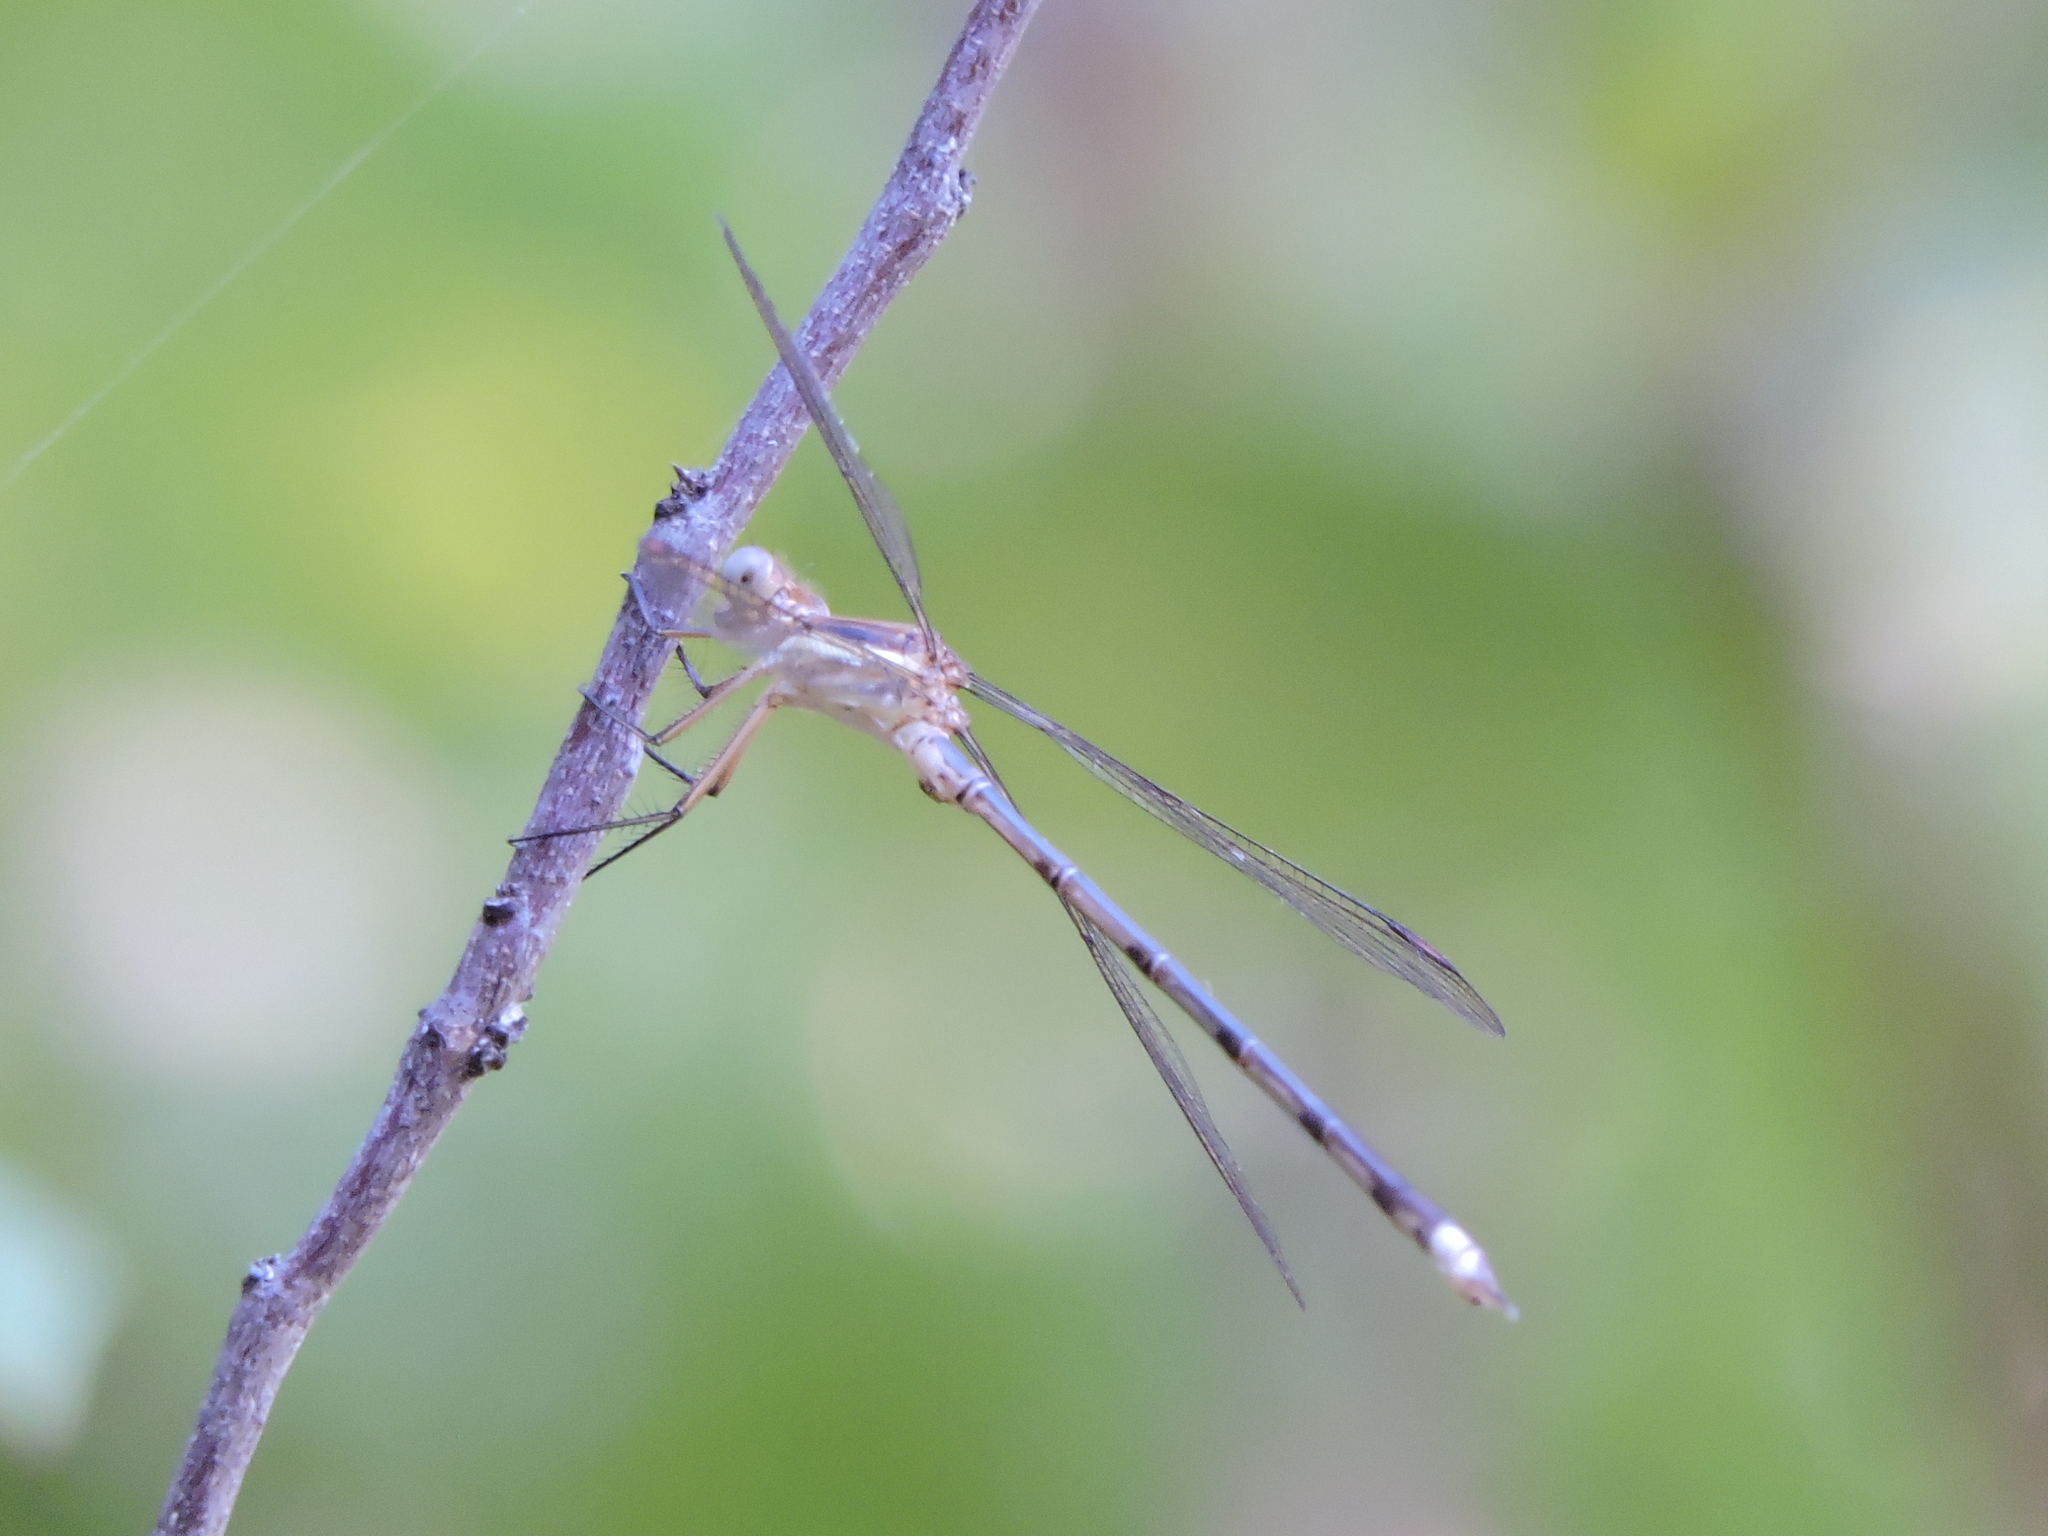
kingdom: Animalia
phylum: Arthropoda
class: Insecta
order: Odonata
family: Lestidae
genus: Archilestes
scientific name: Archilestes grandis
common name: Great spreadwing
